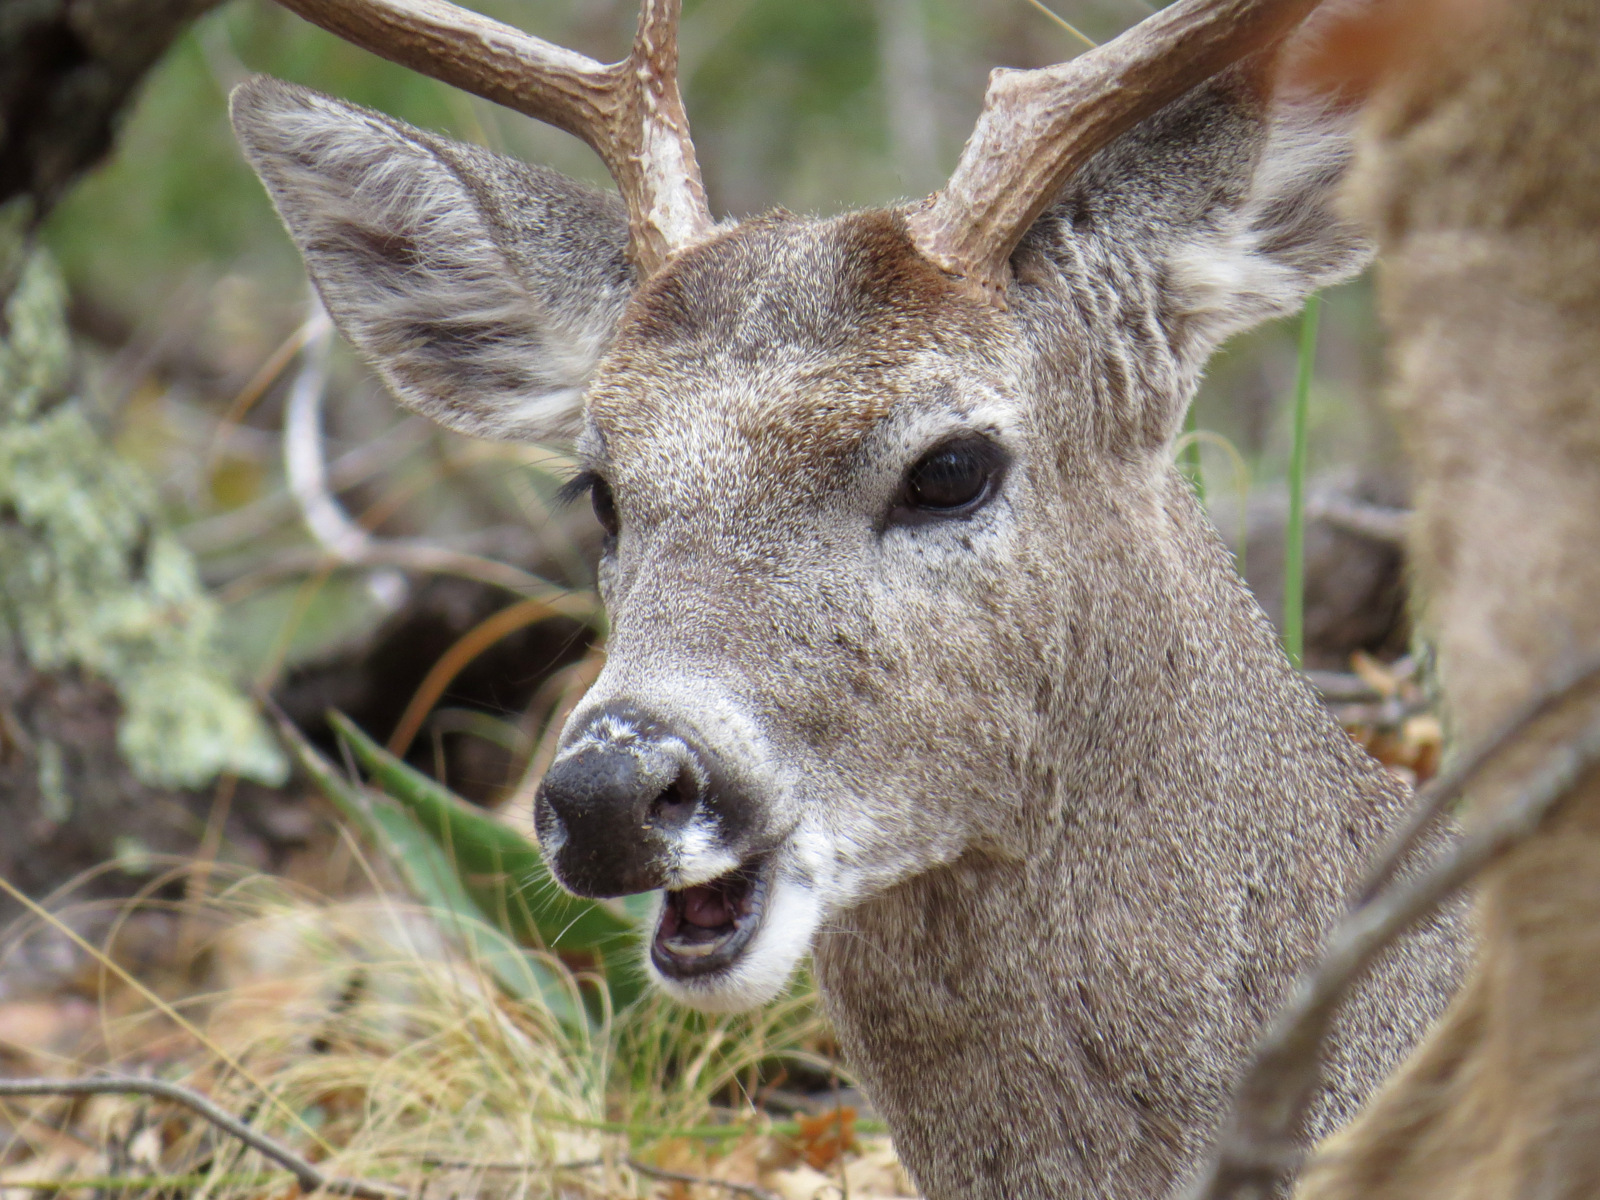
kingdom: Animalia
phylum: Chordata
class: Mammalia
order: Artiodactyla
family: Cervidae
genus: Odocoileus
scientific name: Odocoileus virginianus
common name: White-tailed deer
